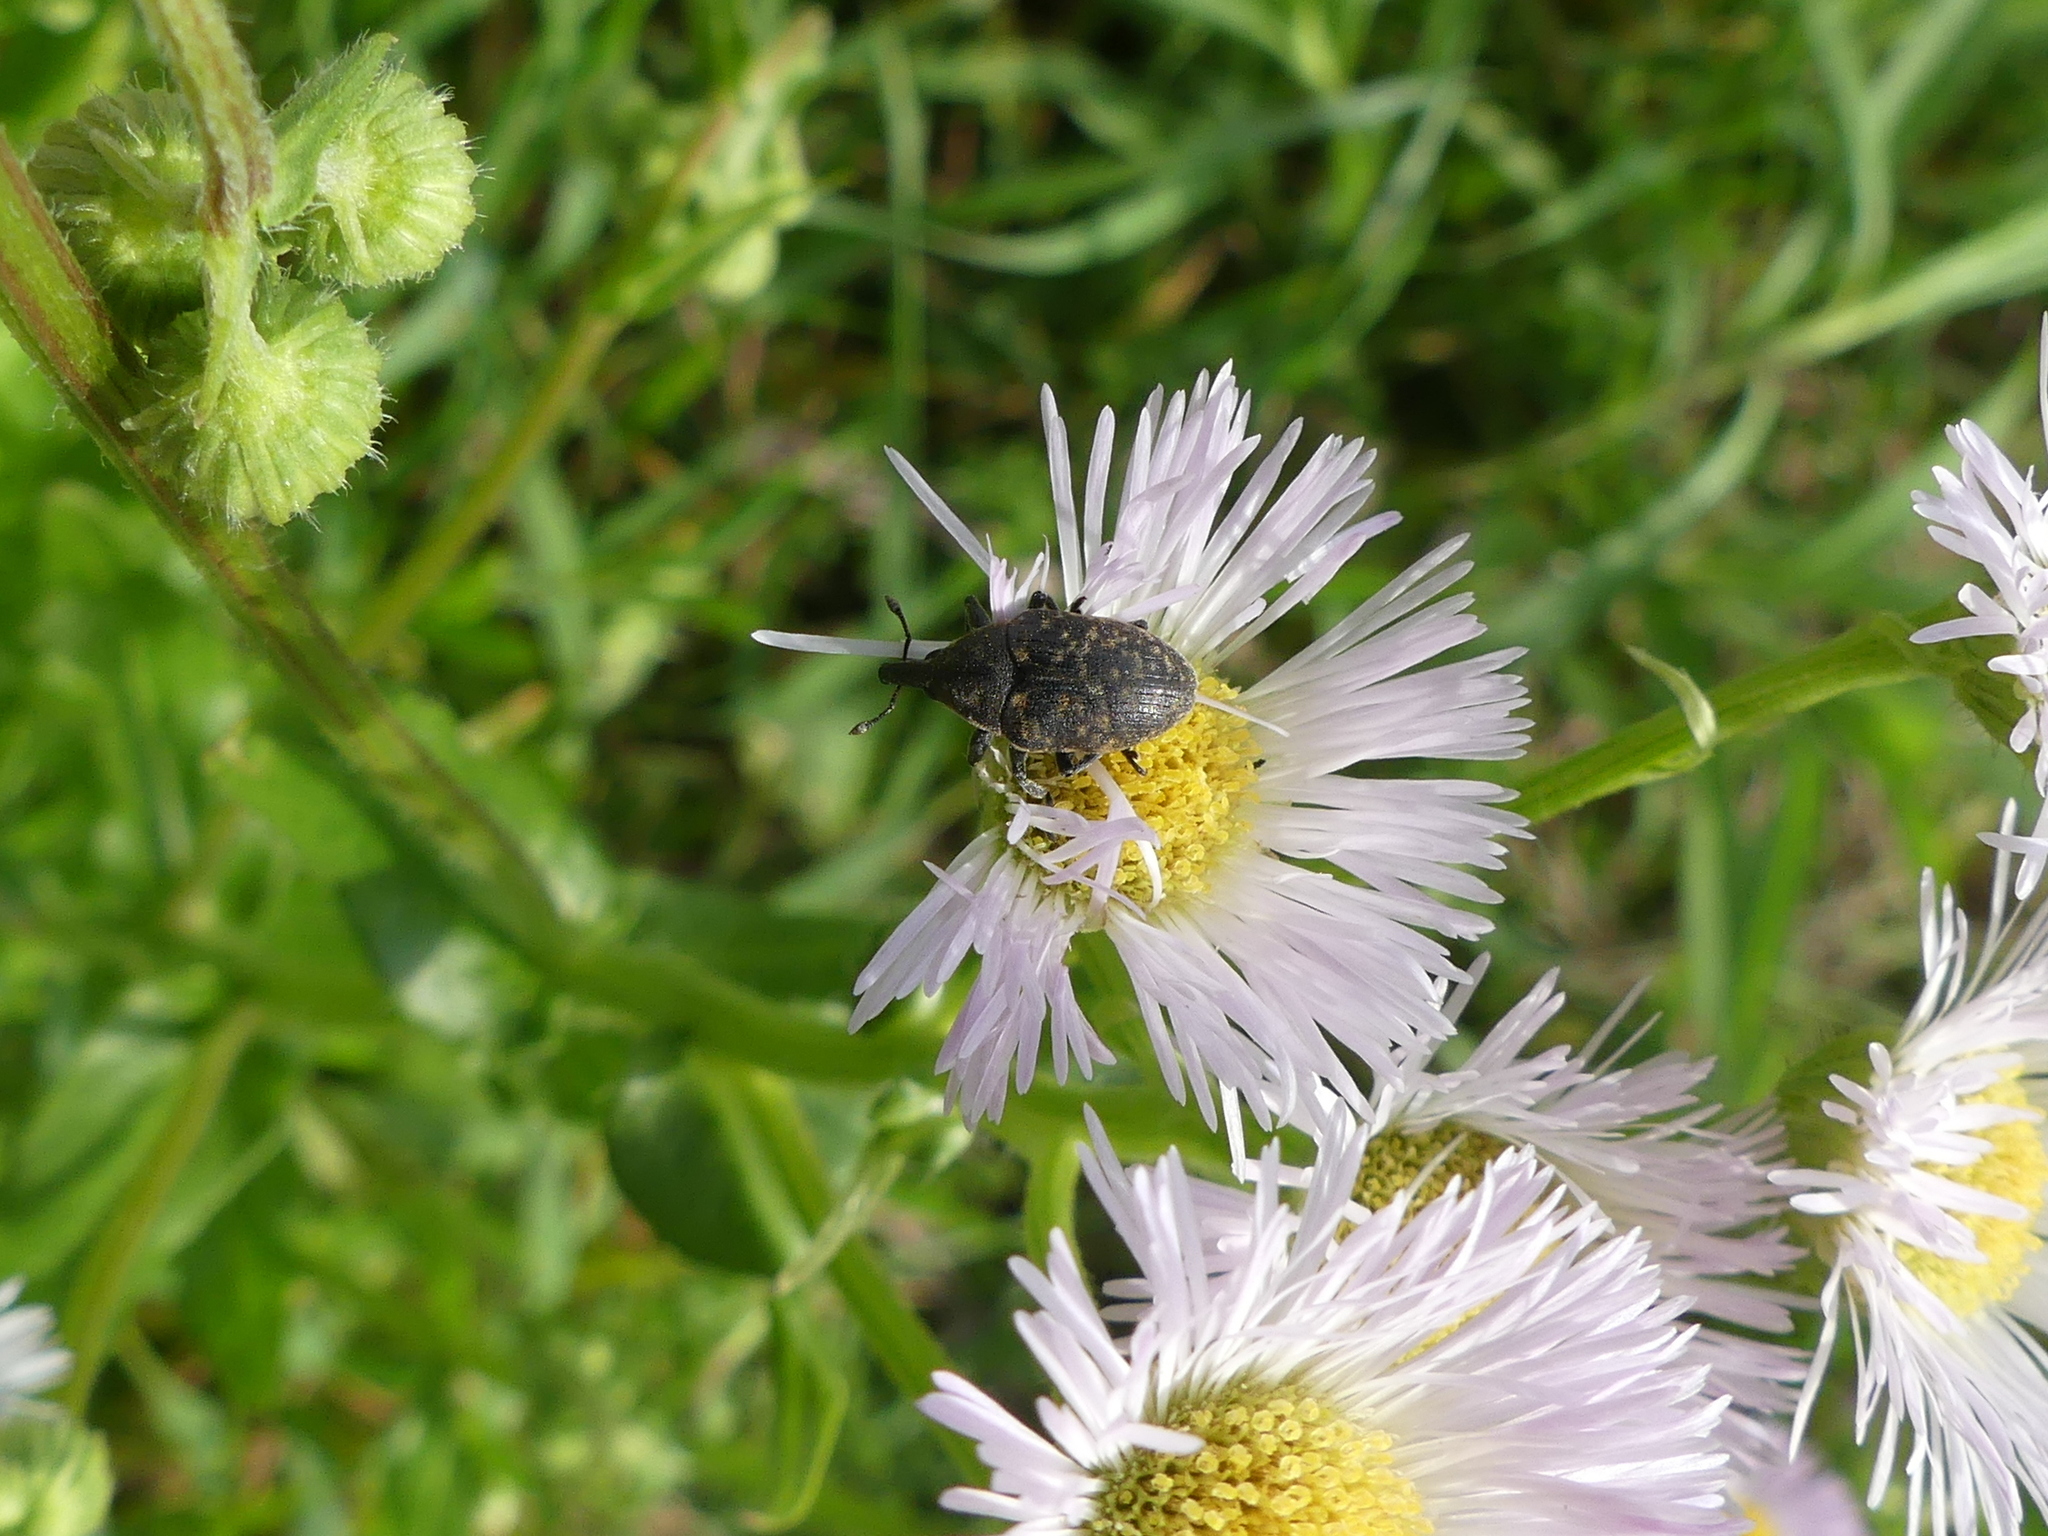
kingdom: Animalia
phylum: Arthropoda
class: Insecta
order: Coleoptera
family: Curculionidae
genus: Larinus
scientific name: Larinus turbinatus
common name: Weevil
